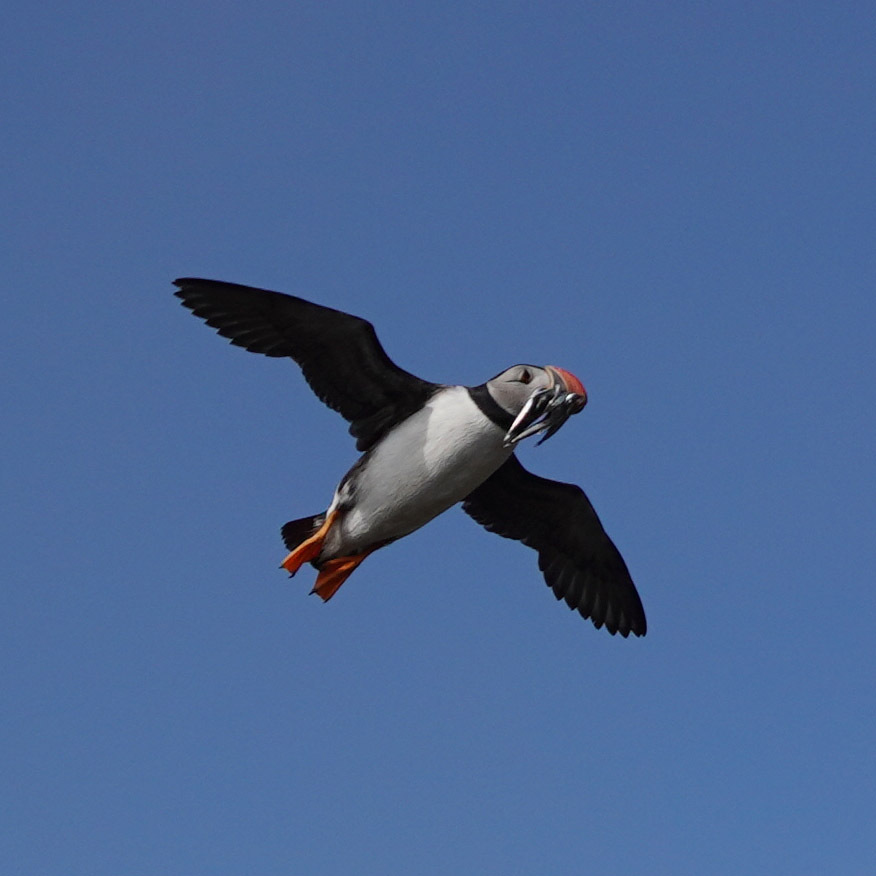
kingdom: Animalia
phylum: Chordata
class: Aves
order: Charadriiformes
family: Alcidae
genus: Fratercula
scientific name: Fratercula arctica
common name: Atlantic puffin
